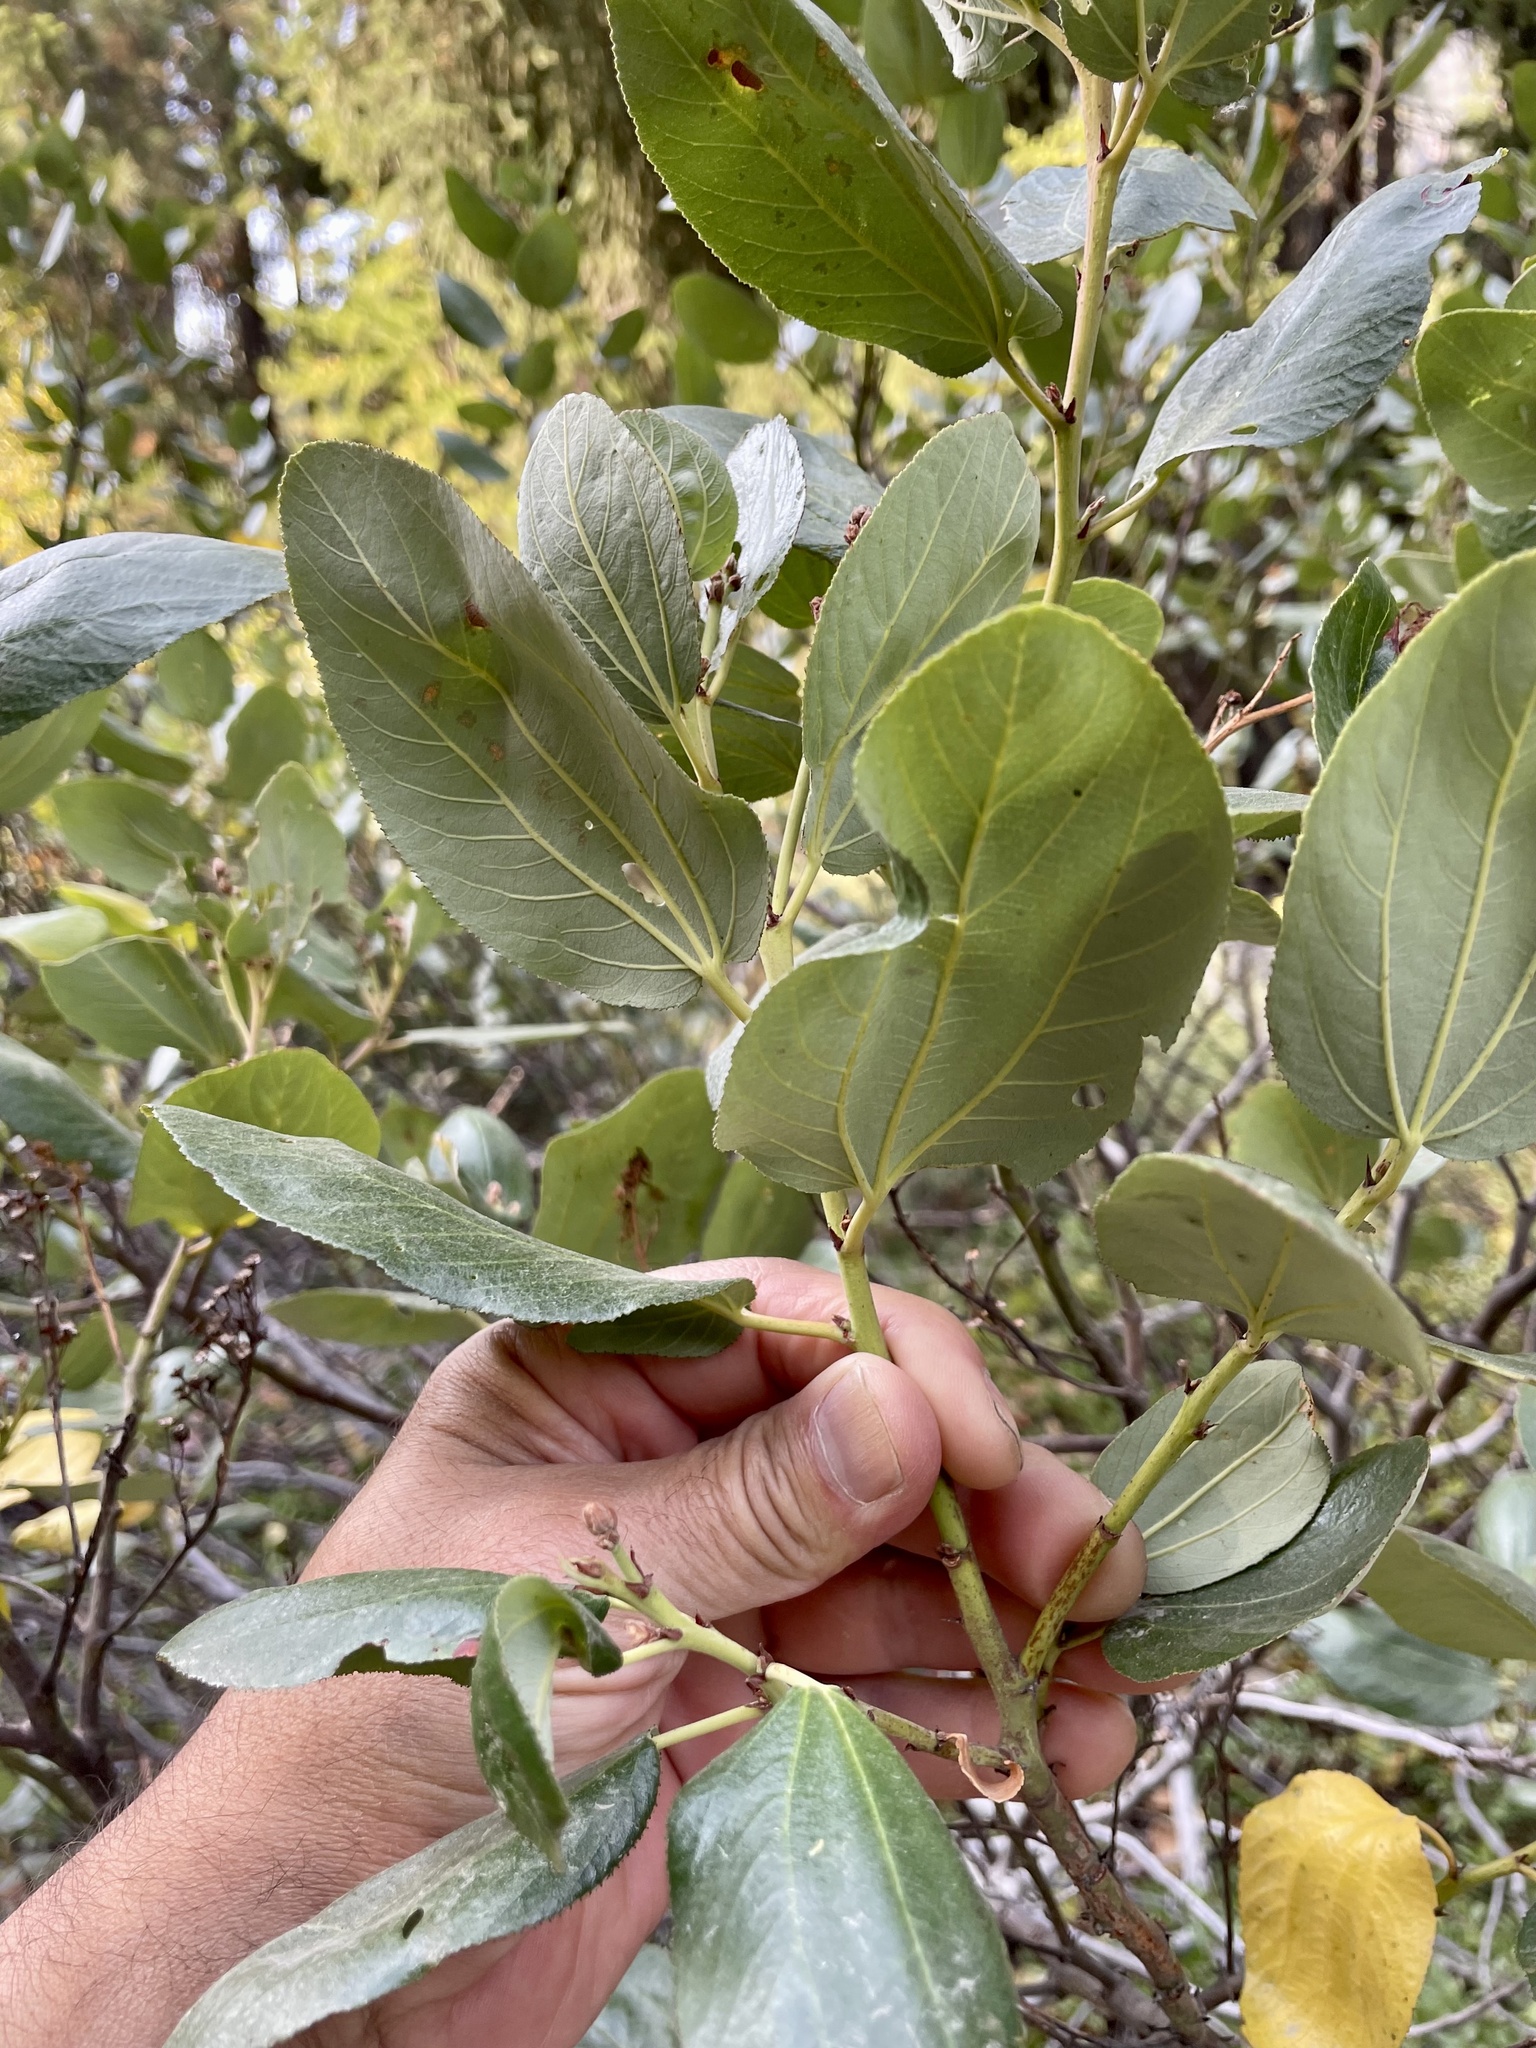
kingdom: Plantae
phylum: Tracheophyta
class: Magnoliopsida
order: Rosales
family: Rhamnaceae
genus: Ceanothus
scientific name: Ceanothus velutinus
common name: Snowbrush
